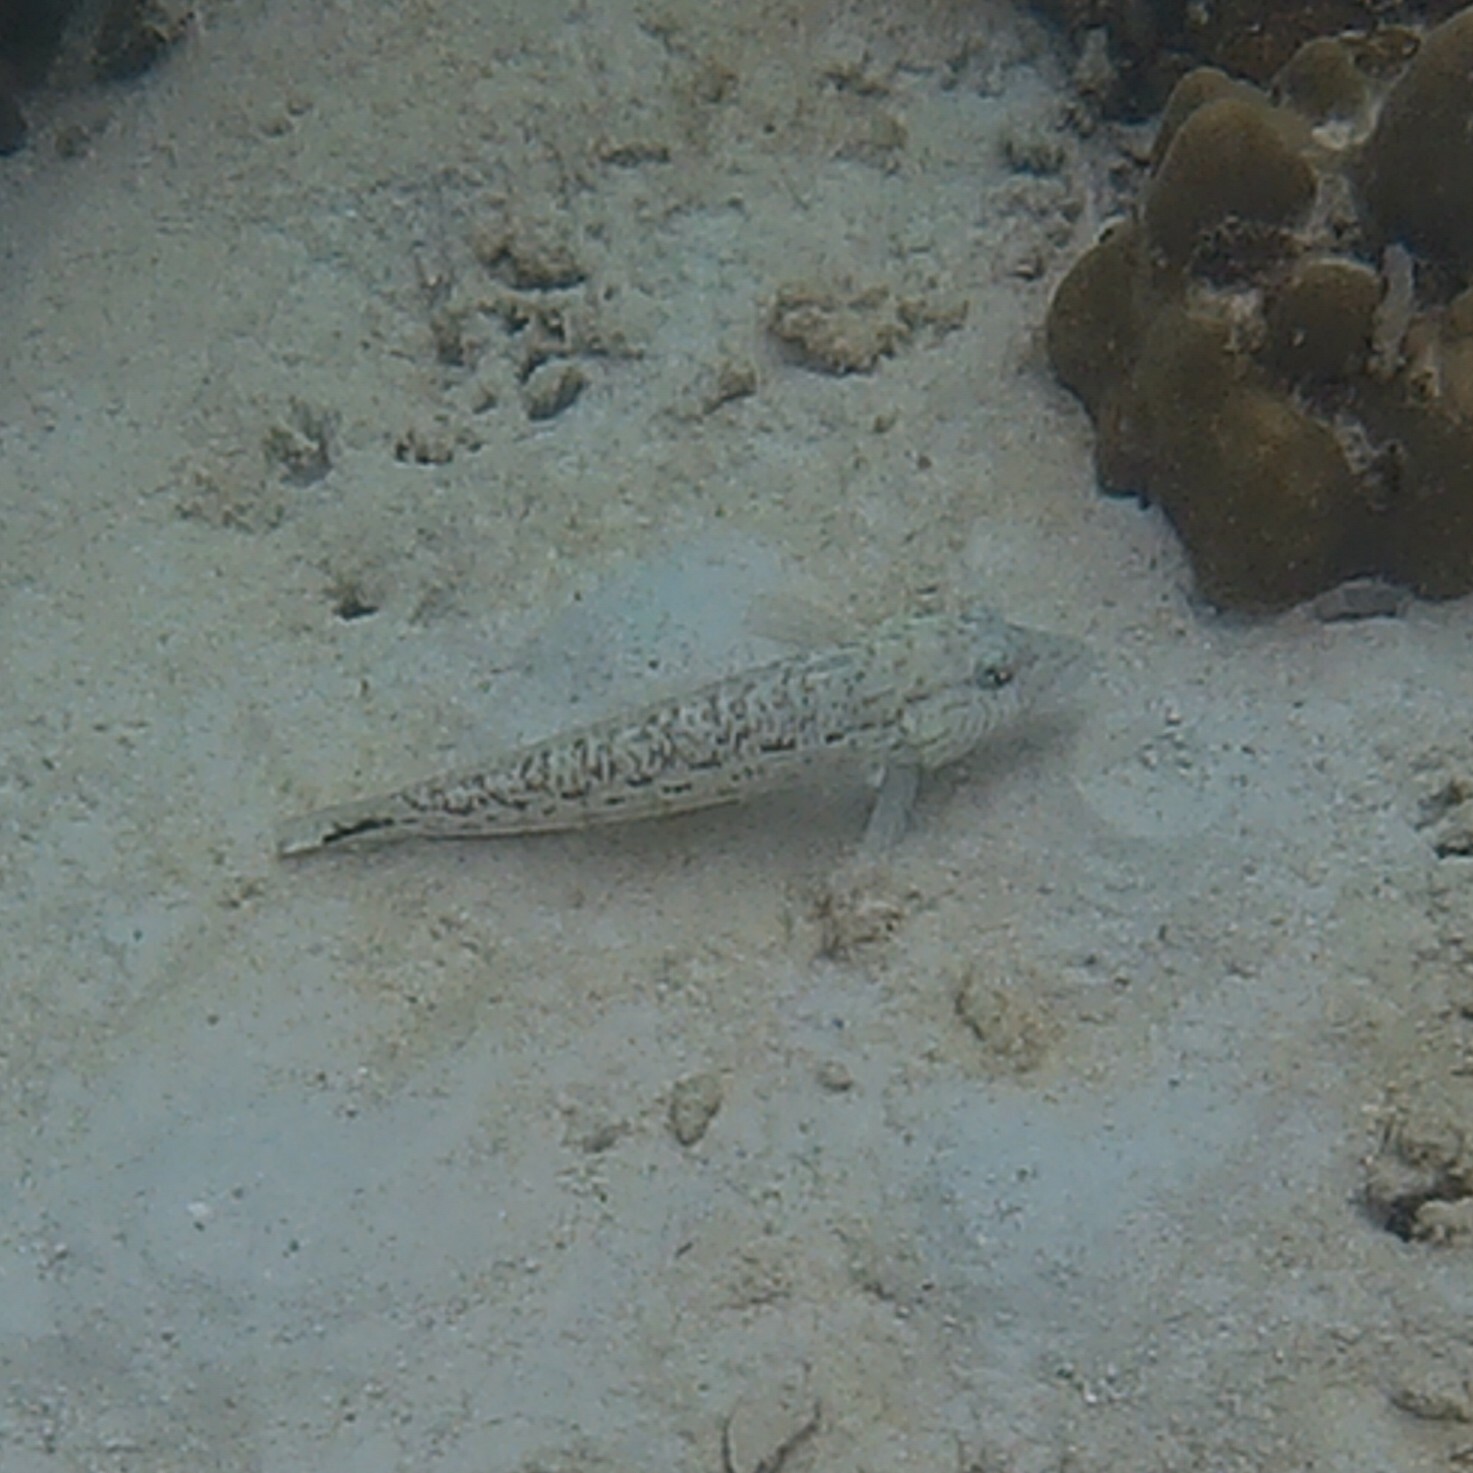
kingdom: Animalia
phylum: Chordata
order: Perciformes
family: Pinguipedidae
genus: Parapercis
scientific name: Parapercis hexophtalma
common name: Speckled sandperch
